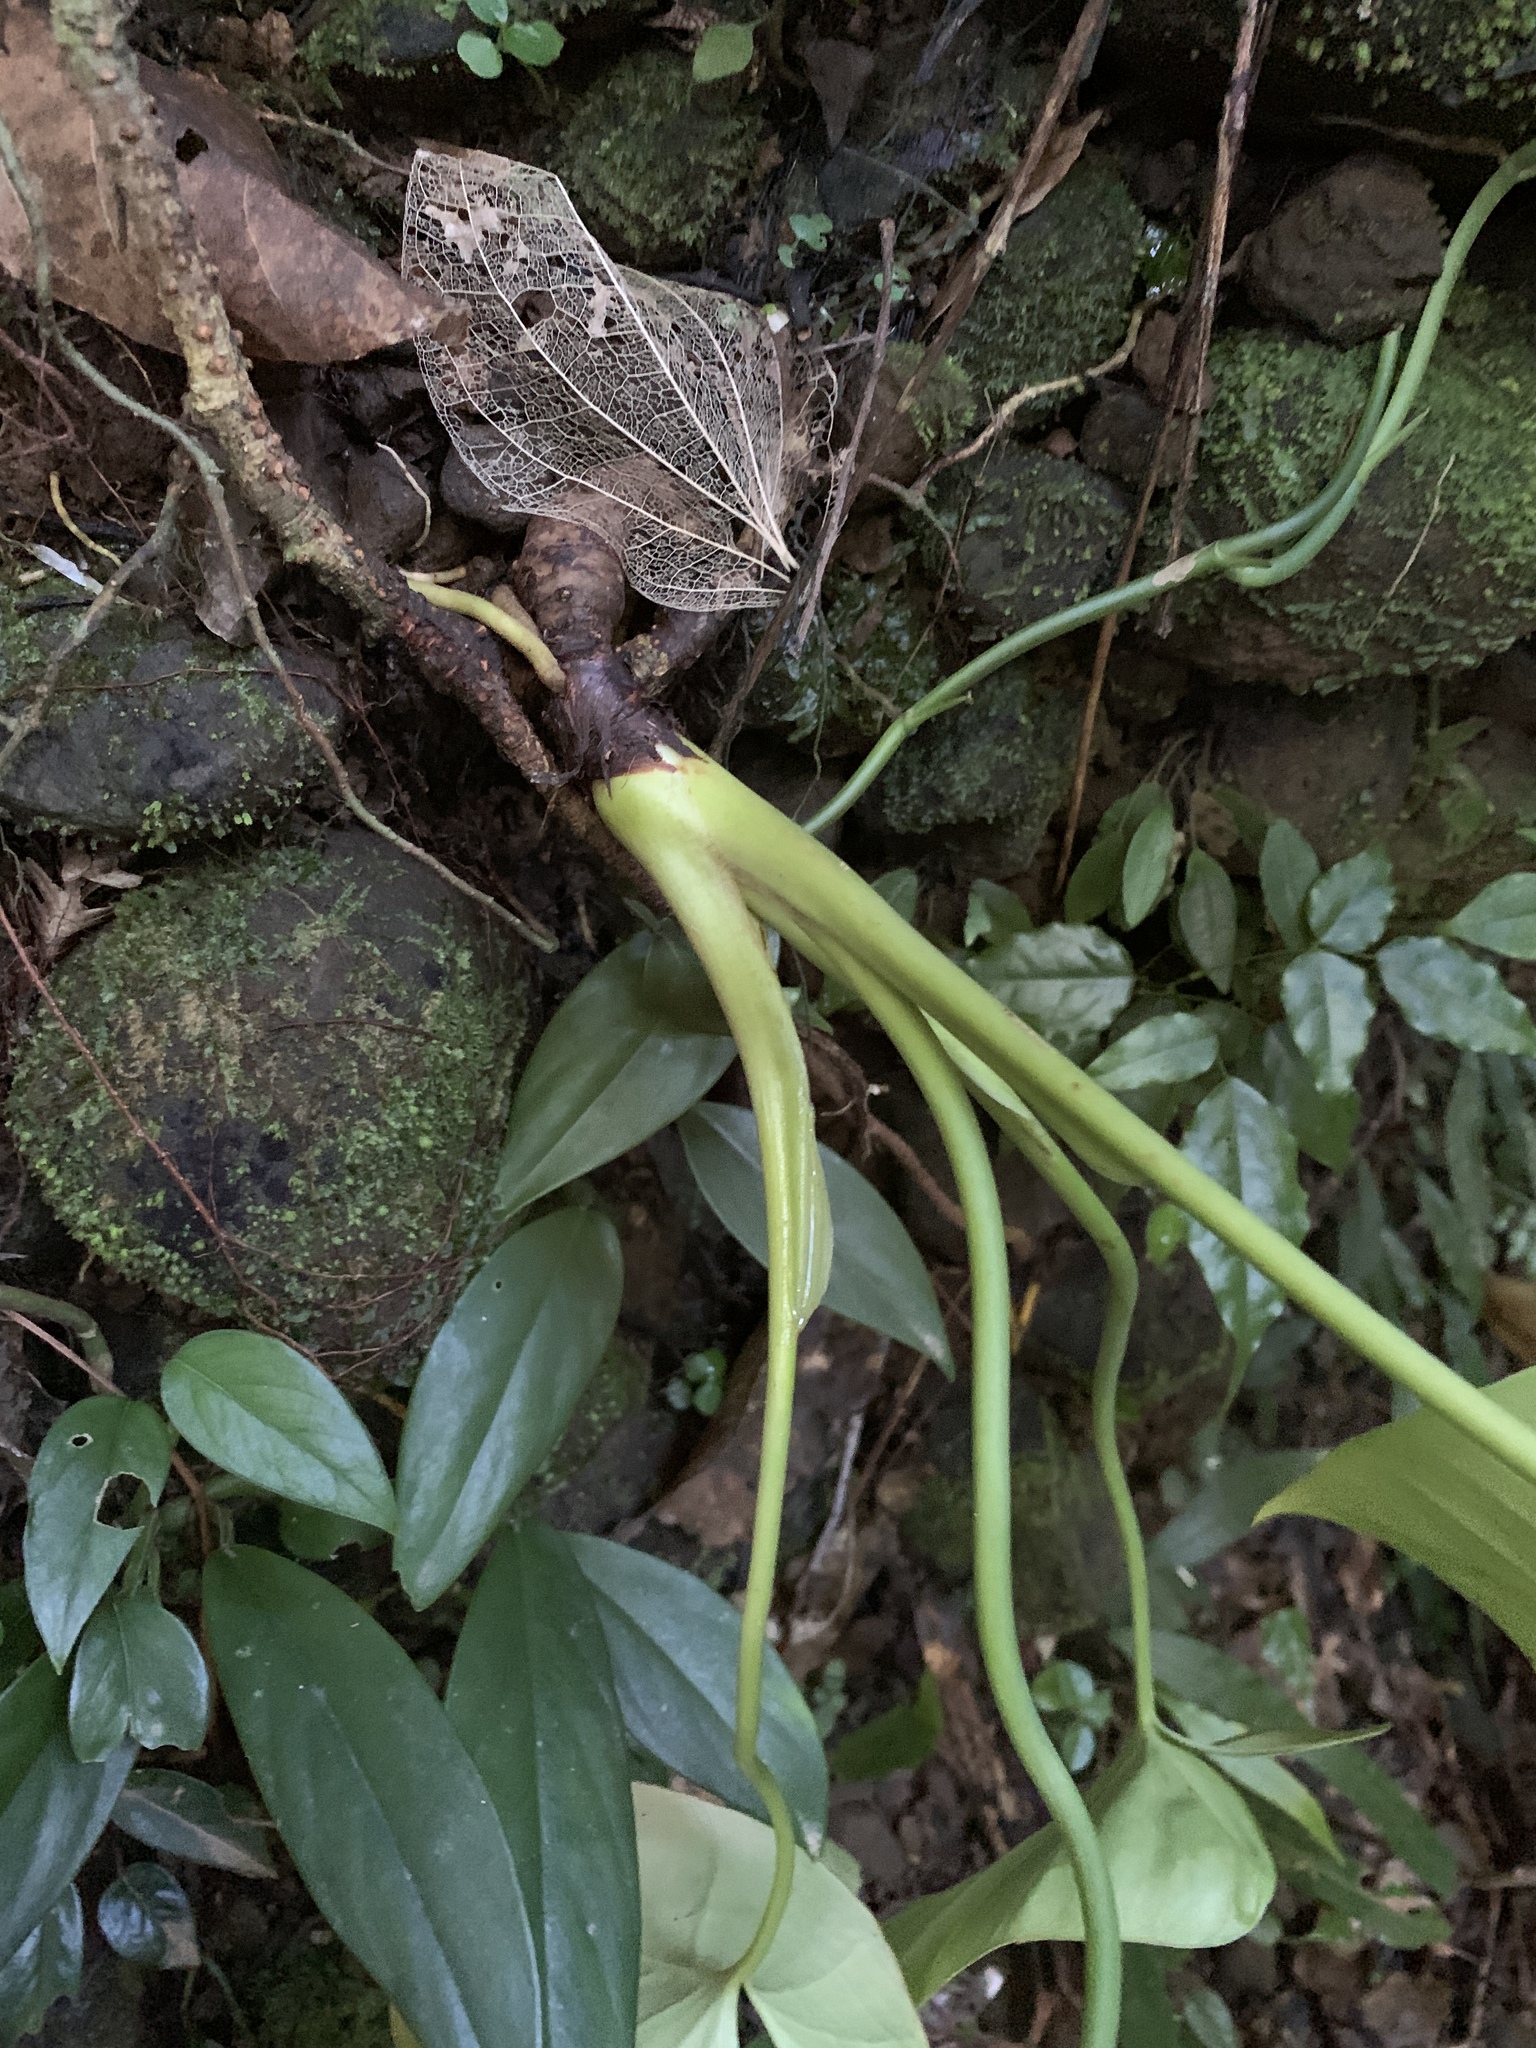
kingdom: Plantae
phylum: Tracheophyta
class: Liliopsida
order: Alismatales
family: Araceae
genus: Homalomena
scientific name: Homalomena philippinensis
